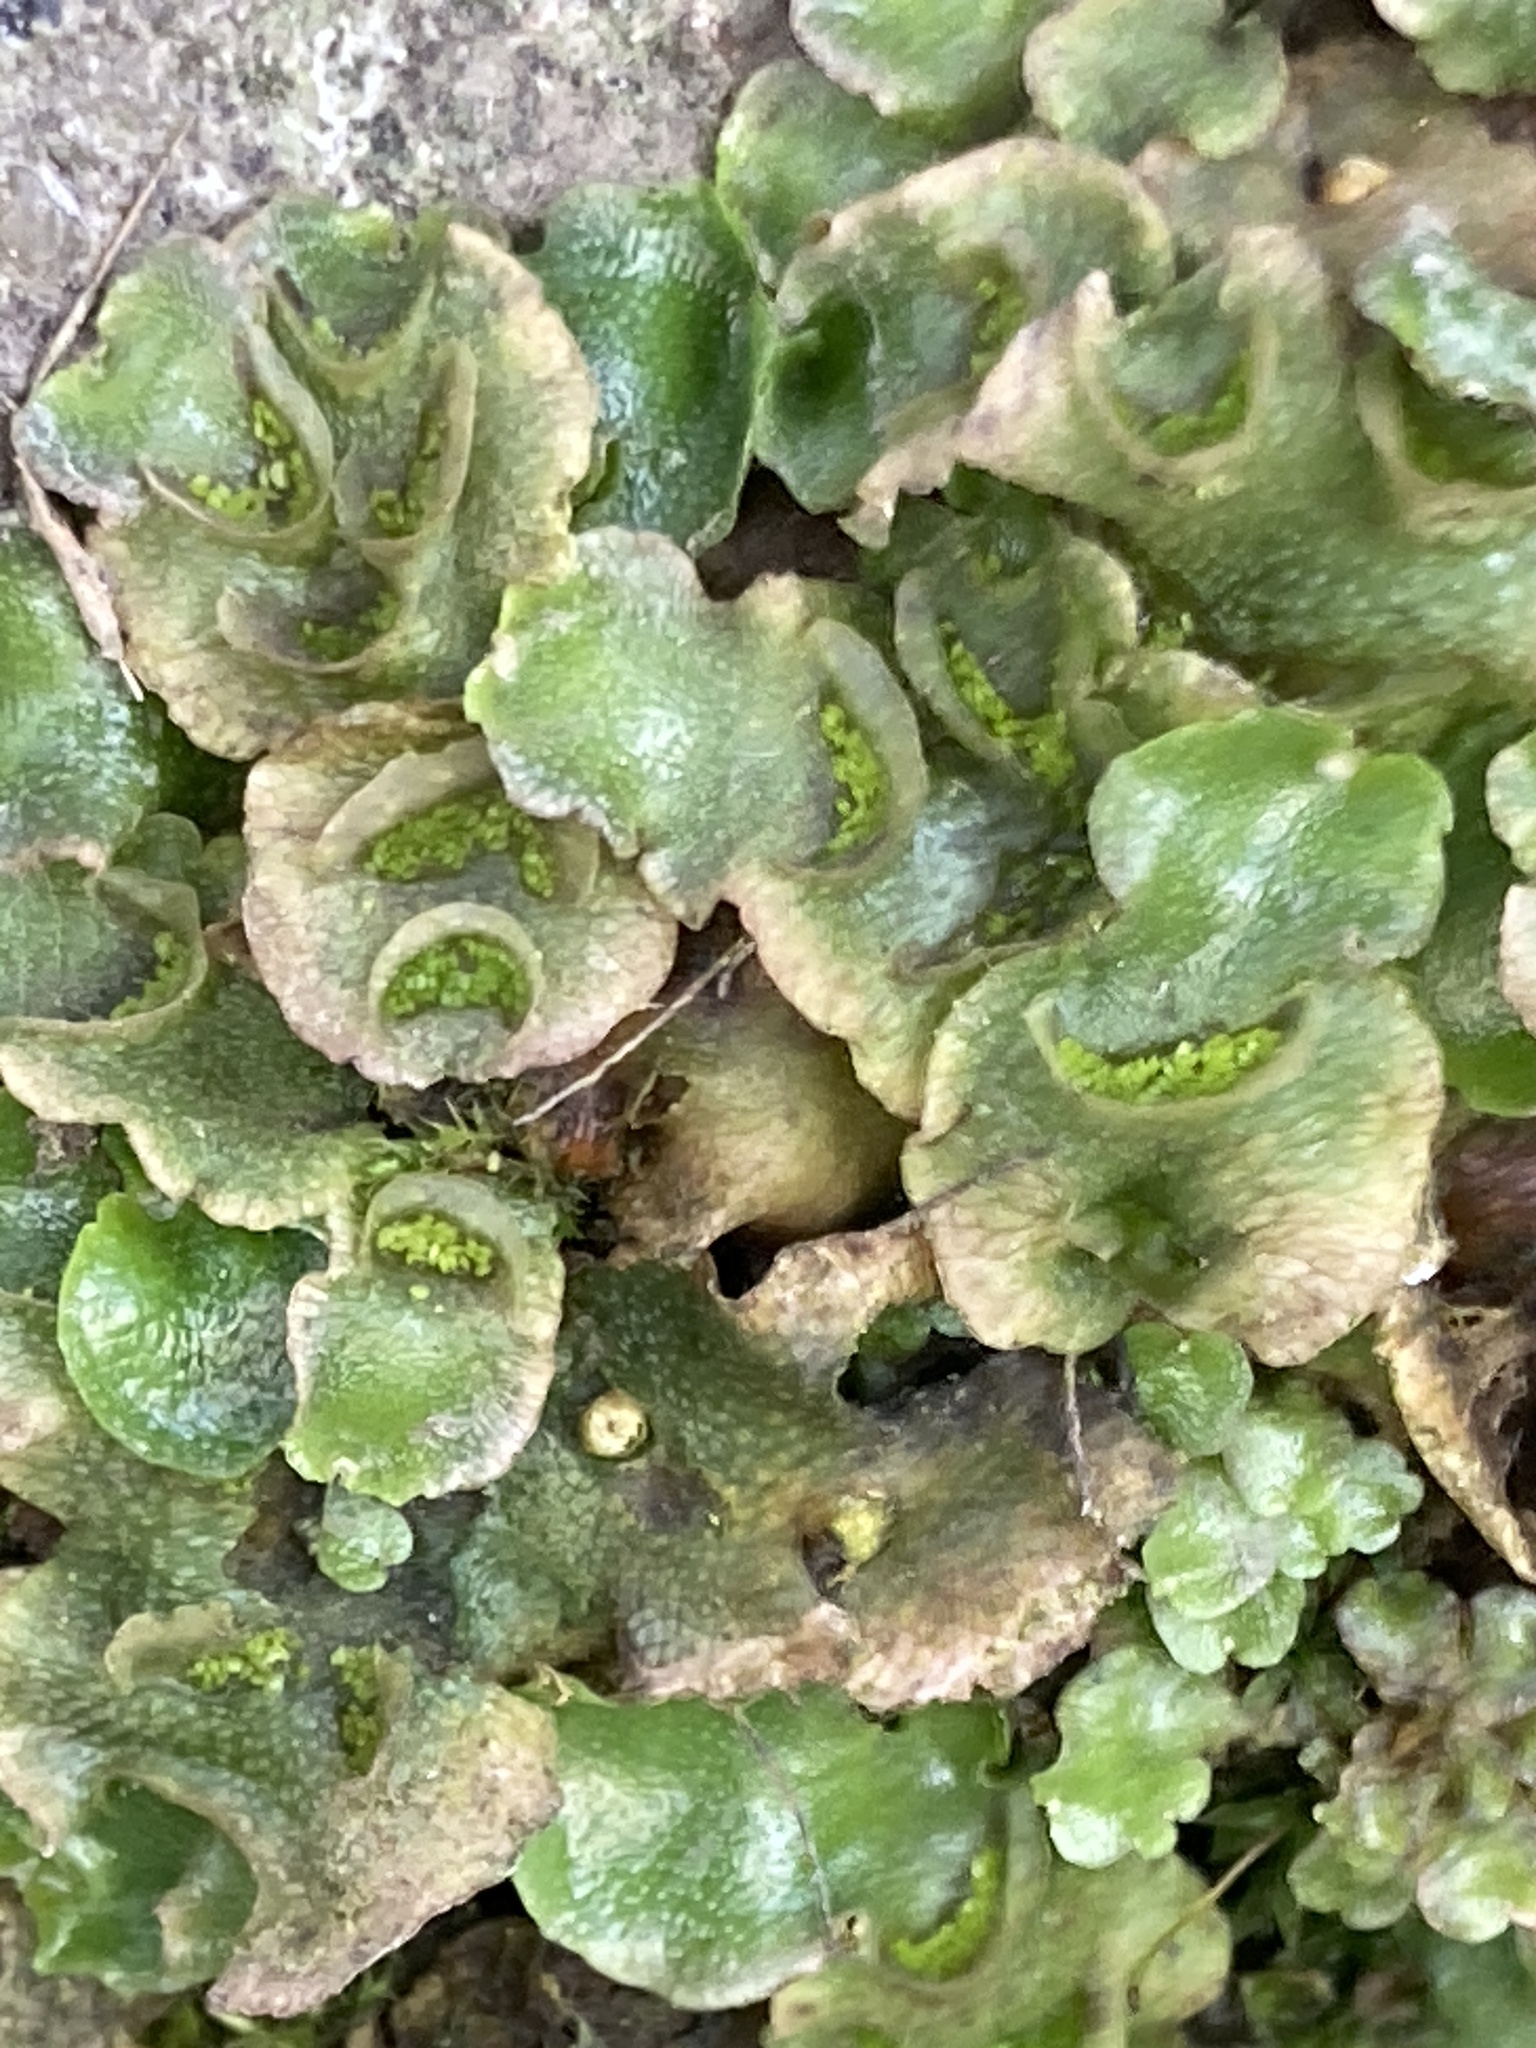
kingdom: Plantae
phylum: Marchantiophyta
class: Marchantiopsida
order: Lunulariales
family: Lunulariaceae
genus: Lunularia
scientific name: Lunularia cruciata
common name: Crescent-cup liverwort
